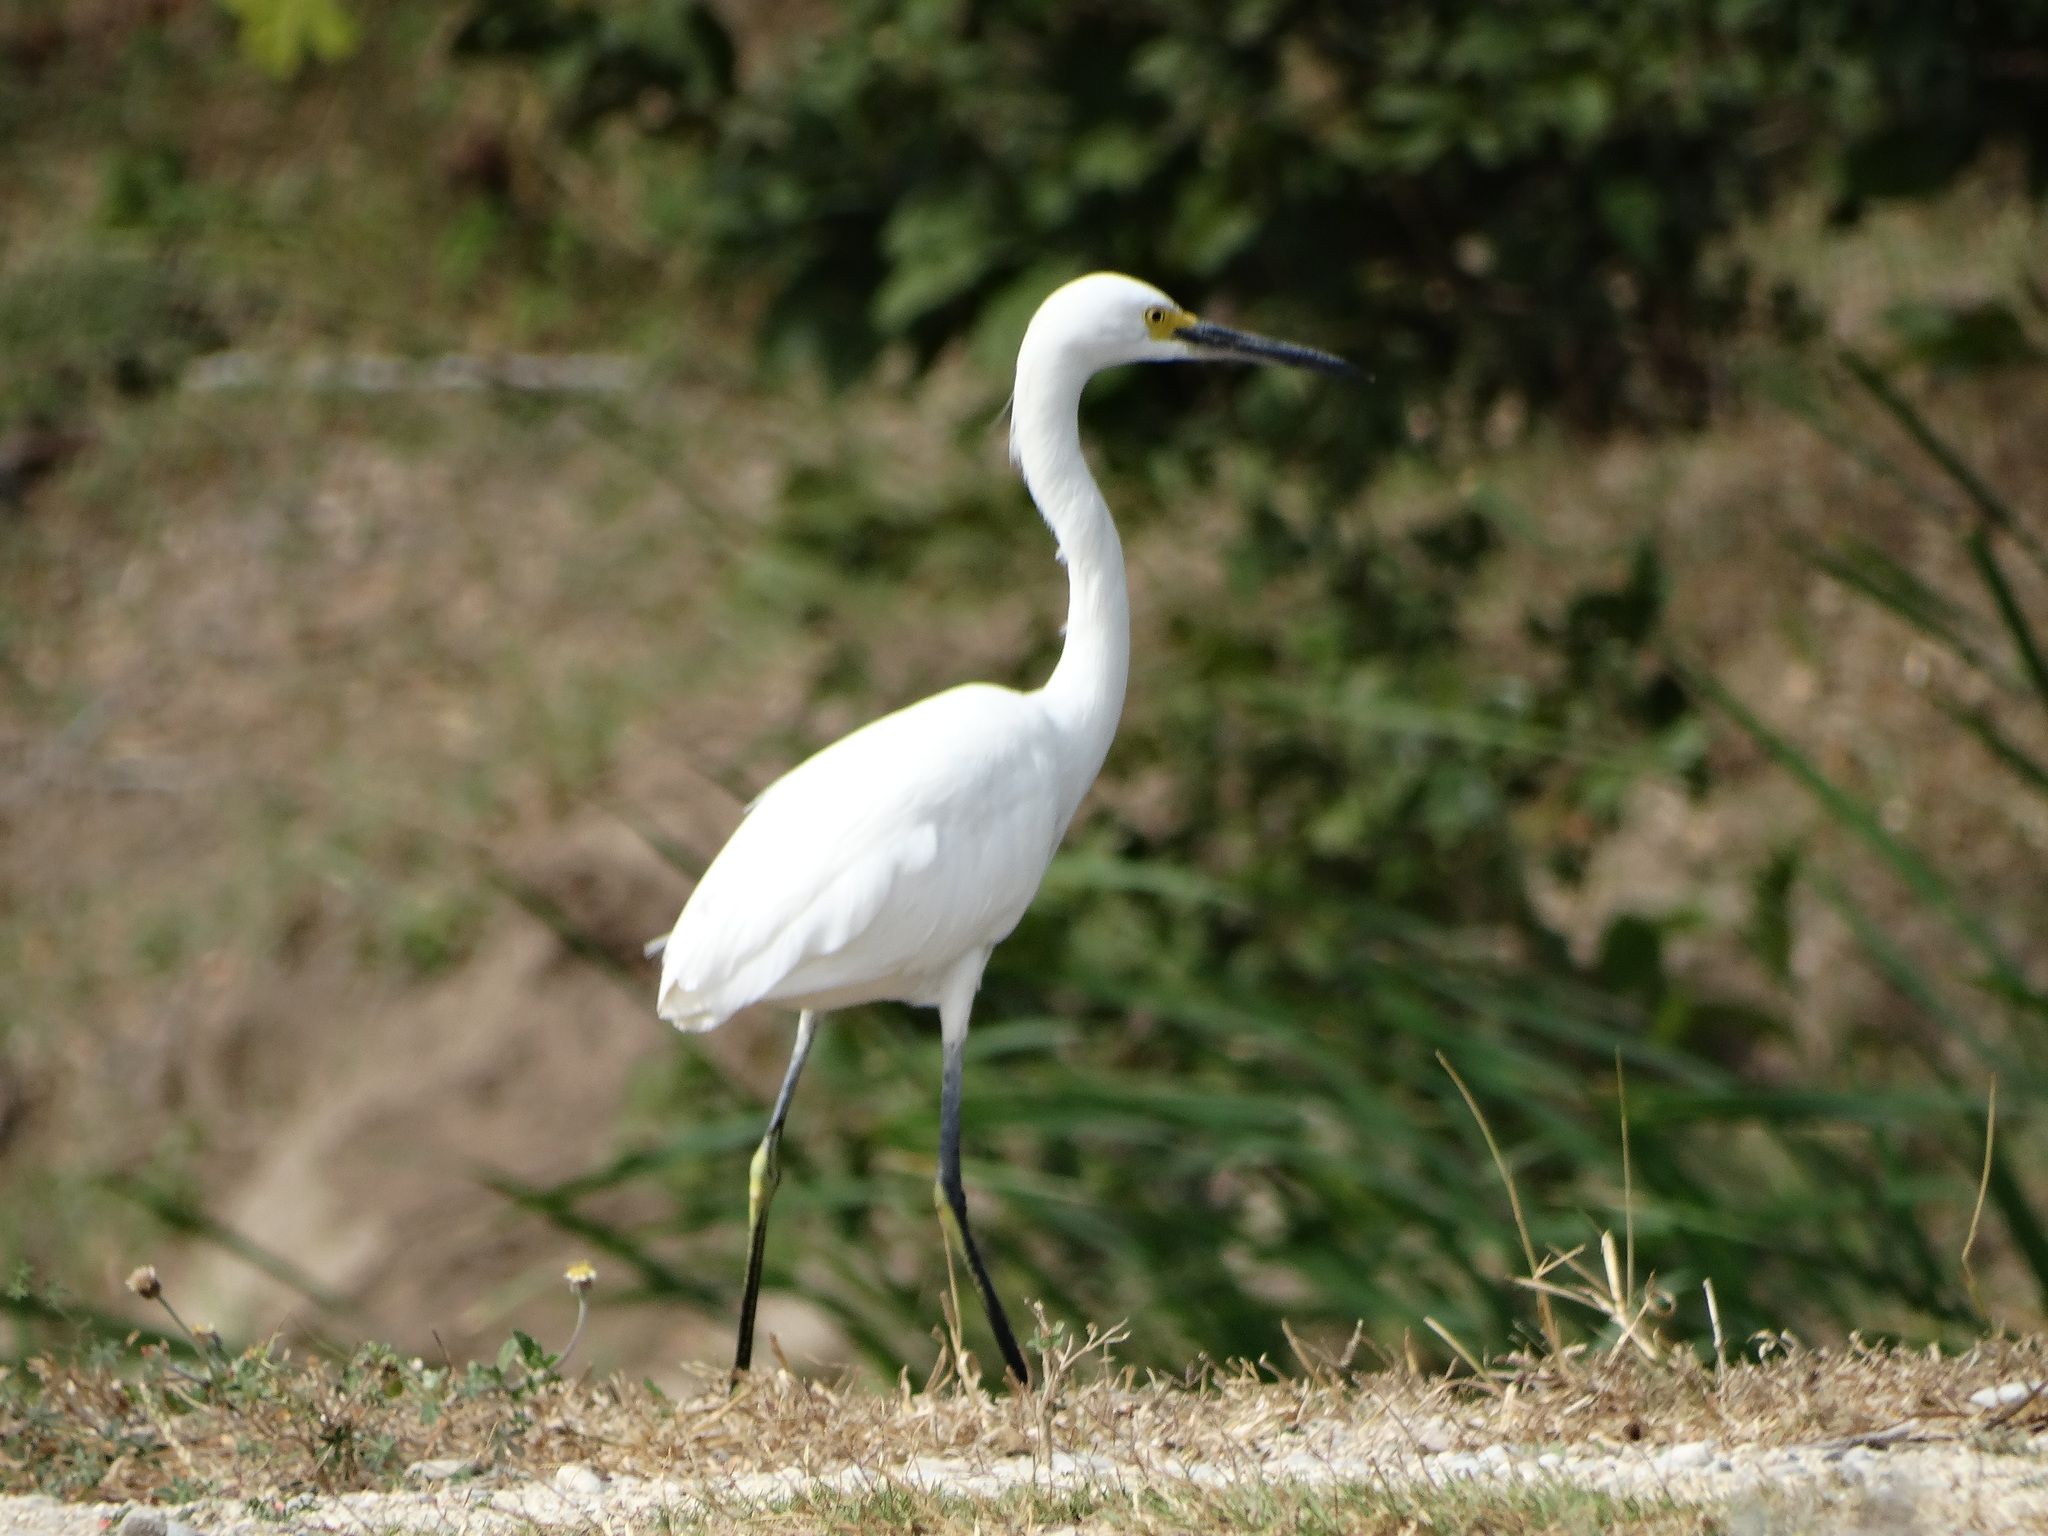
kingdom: Animalia
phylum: Chordata
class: Aves
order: Pelecaniformes
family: Ardeidae
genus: Egretta
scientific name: Egretta thula
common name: Snowy egret
